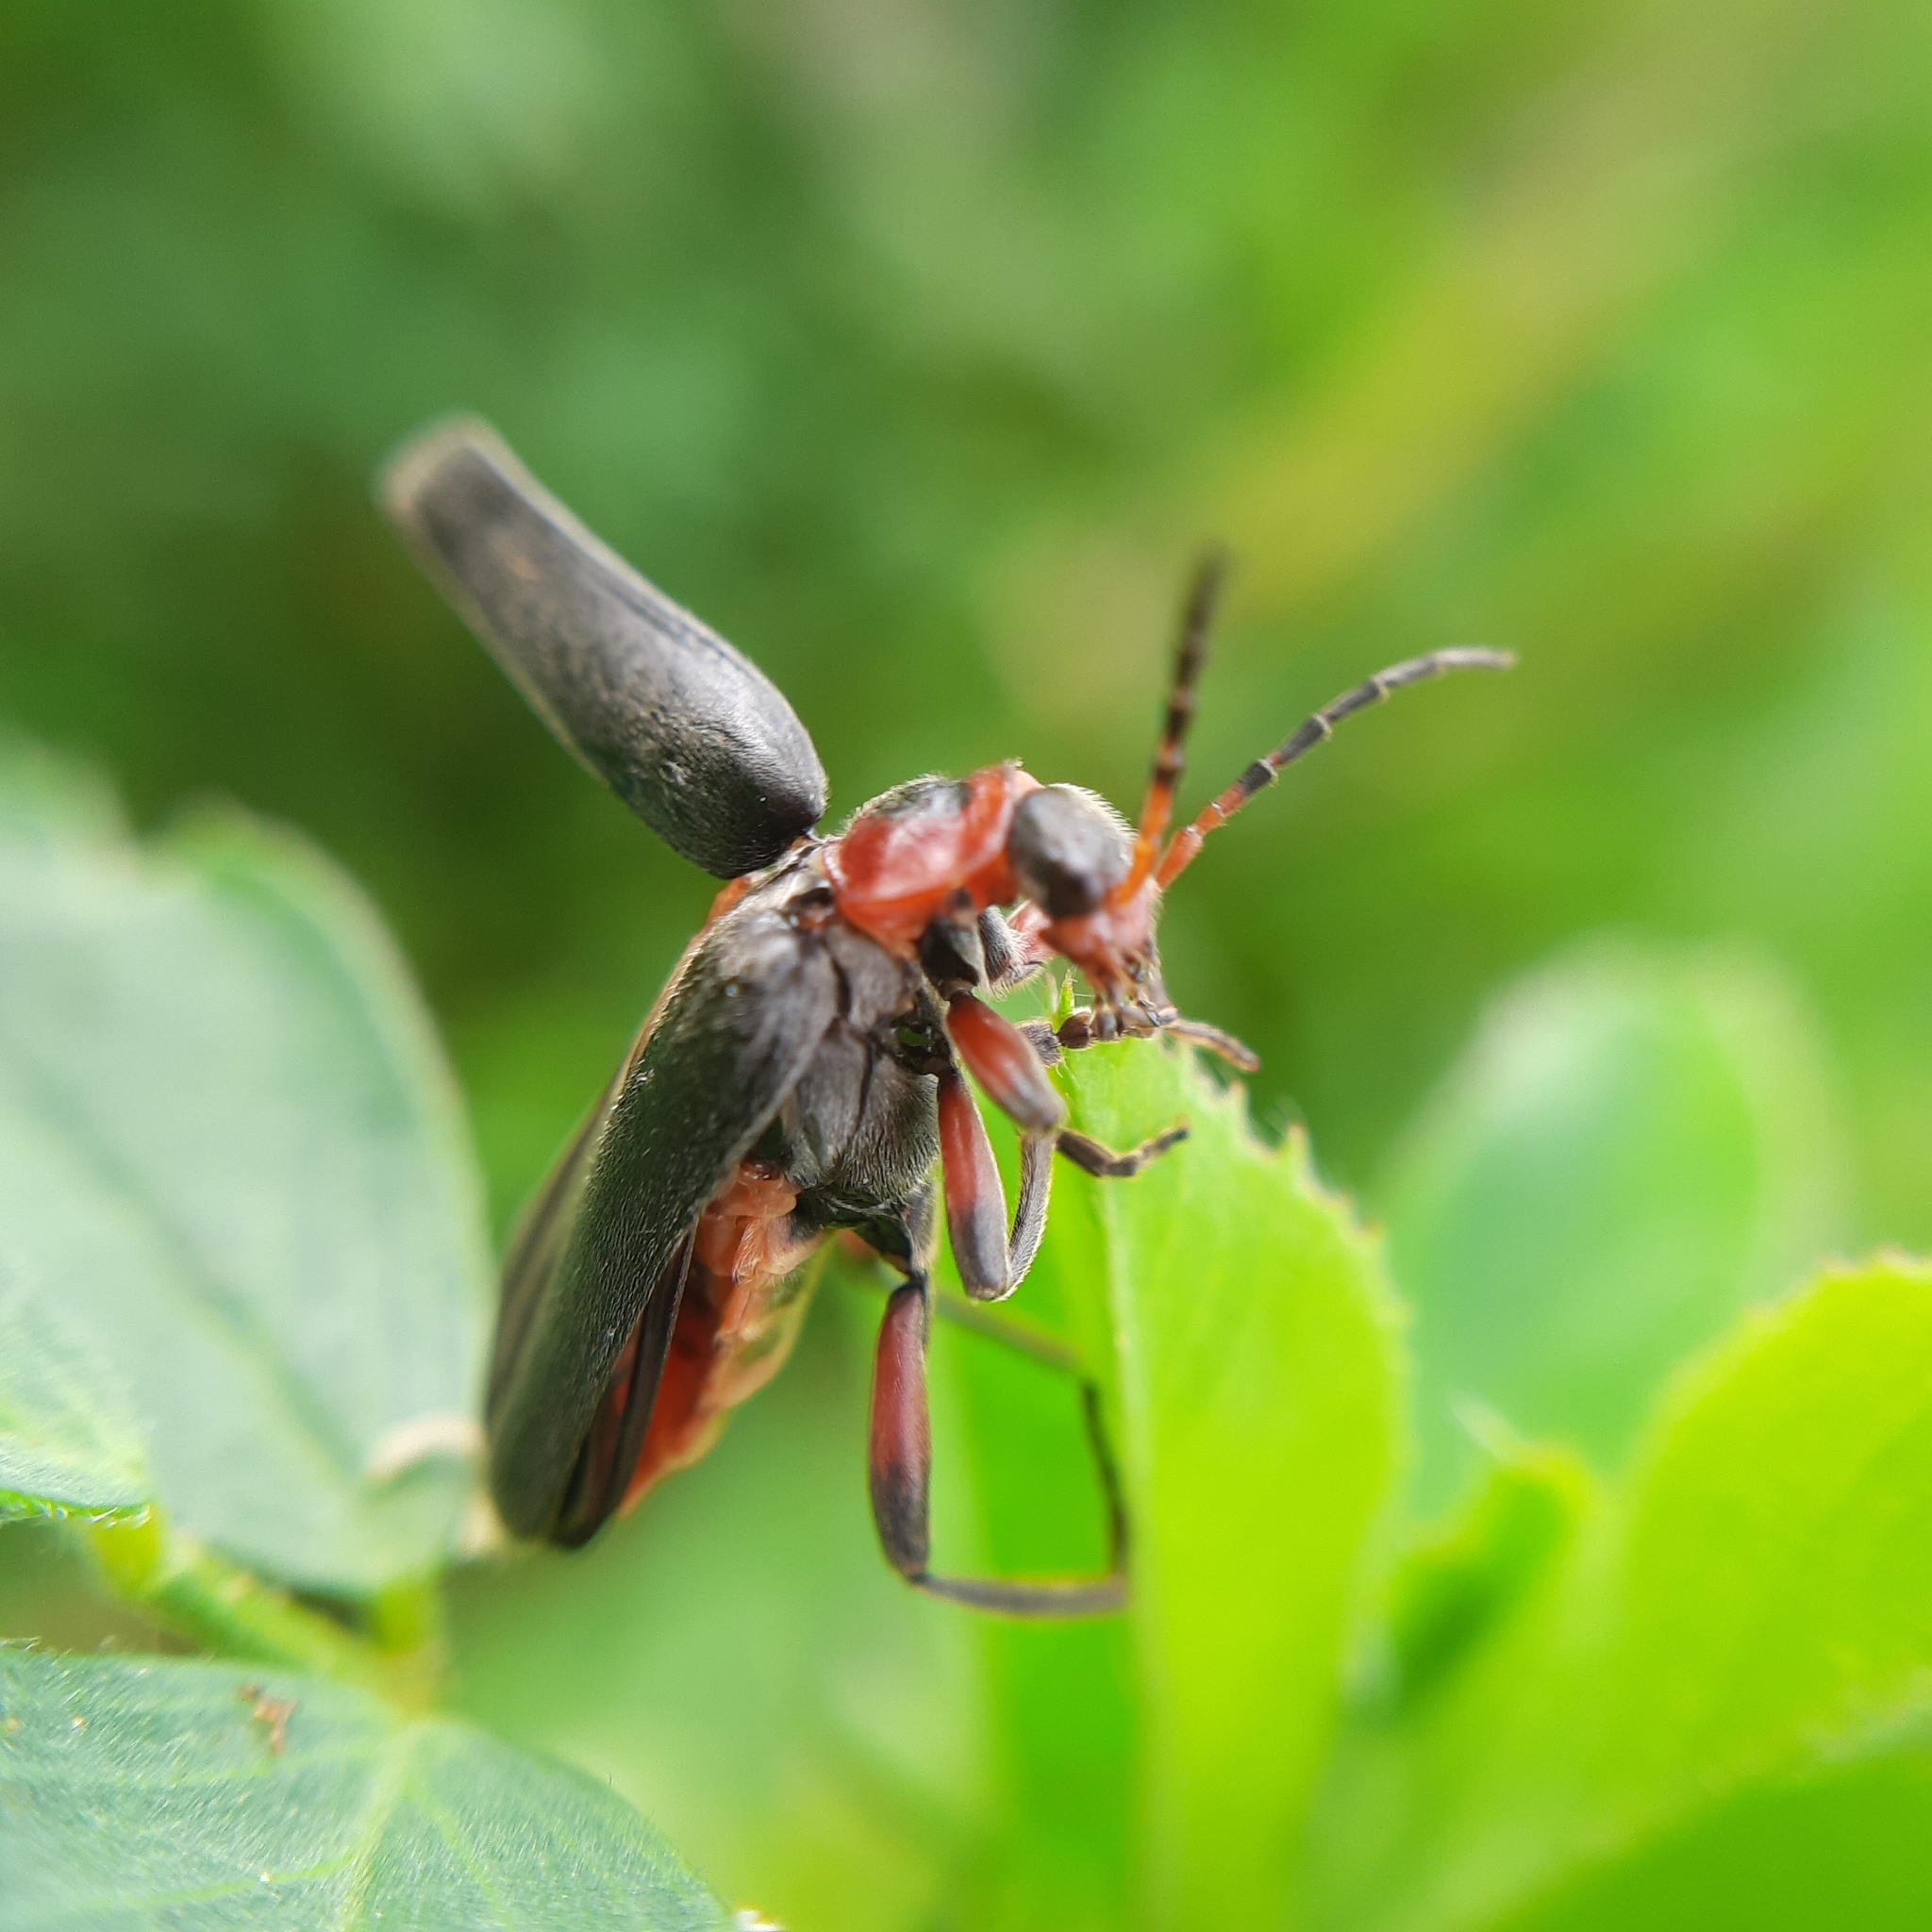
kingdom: Animalia
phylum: Arthropoda
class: Insecta
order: Coleoptera
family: Cantharidae
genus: Cantharis
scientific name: Cantharis rustica
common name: Soldier beetle
